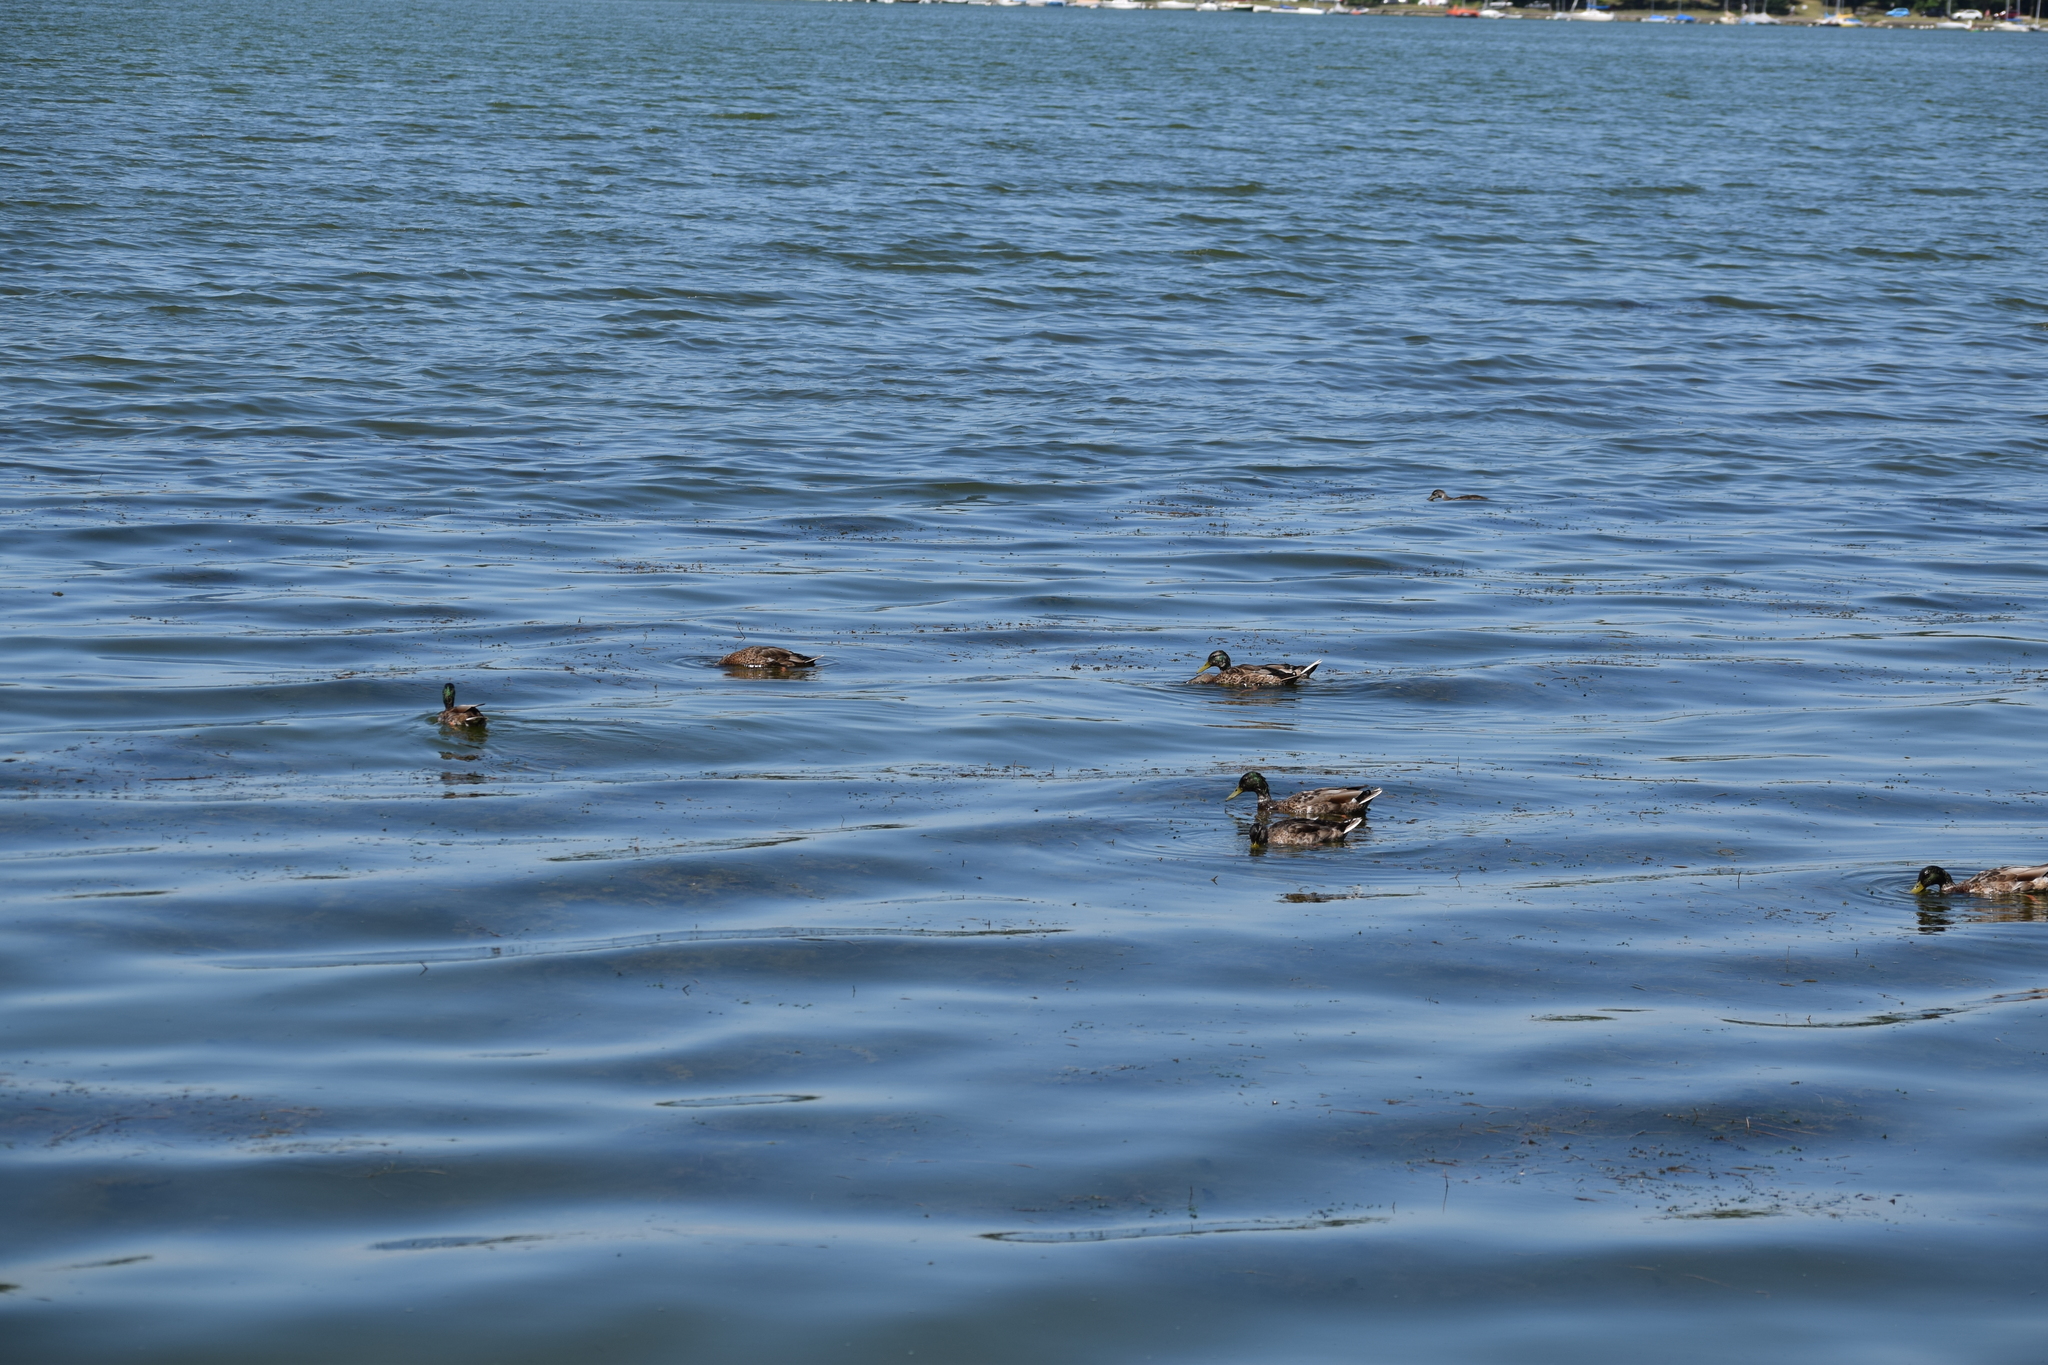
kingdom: Animalia
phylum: Chordata
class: Aves
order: Anseriformes
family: Anatidae
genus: Anas
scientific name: Anas platyrhynchos
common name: Mallard
